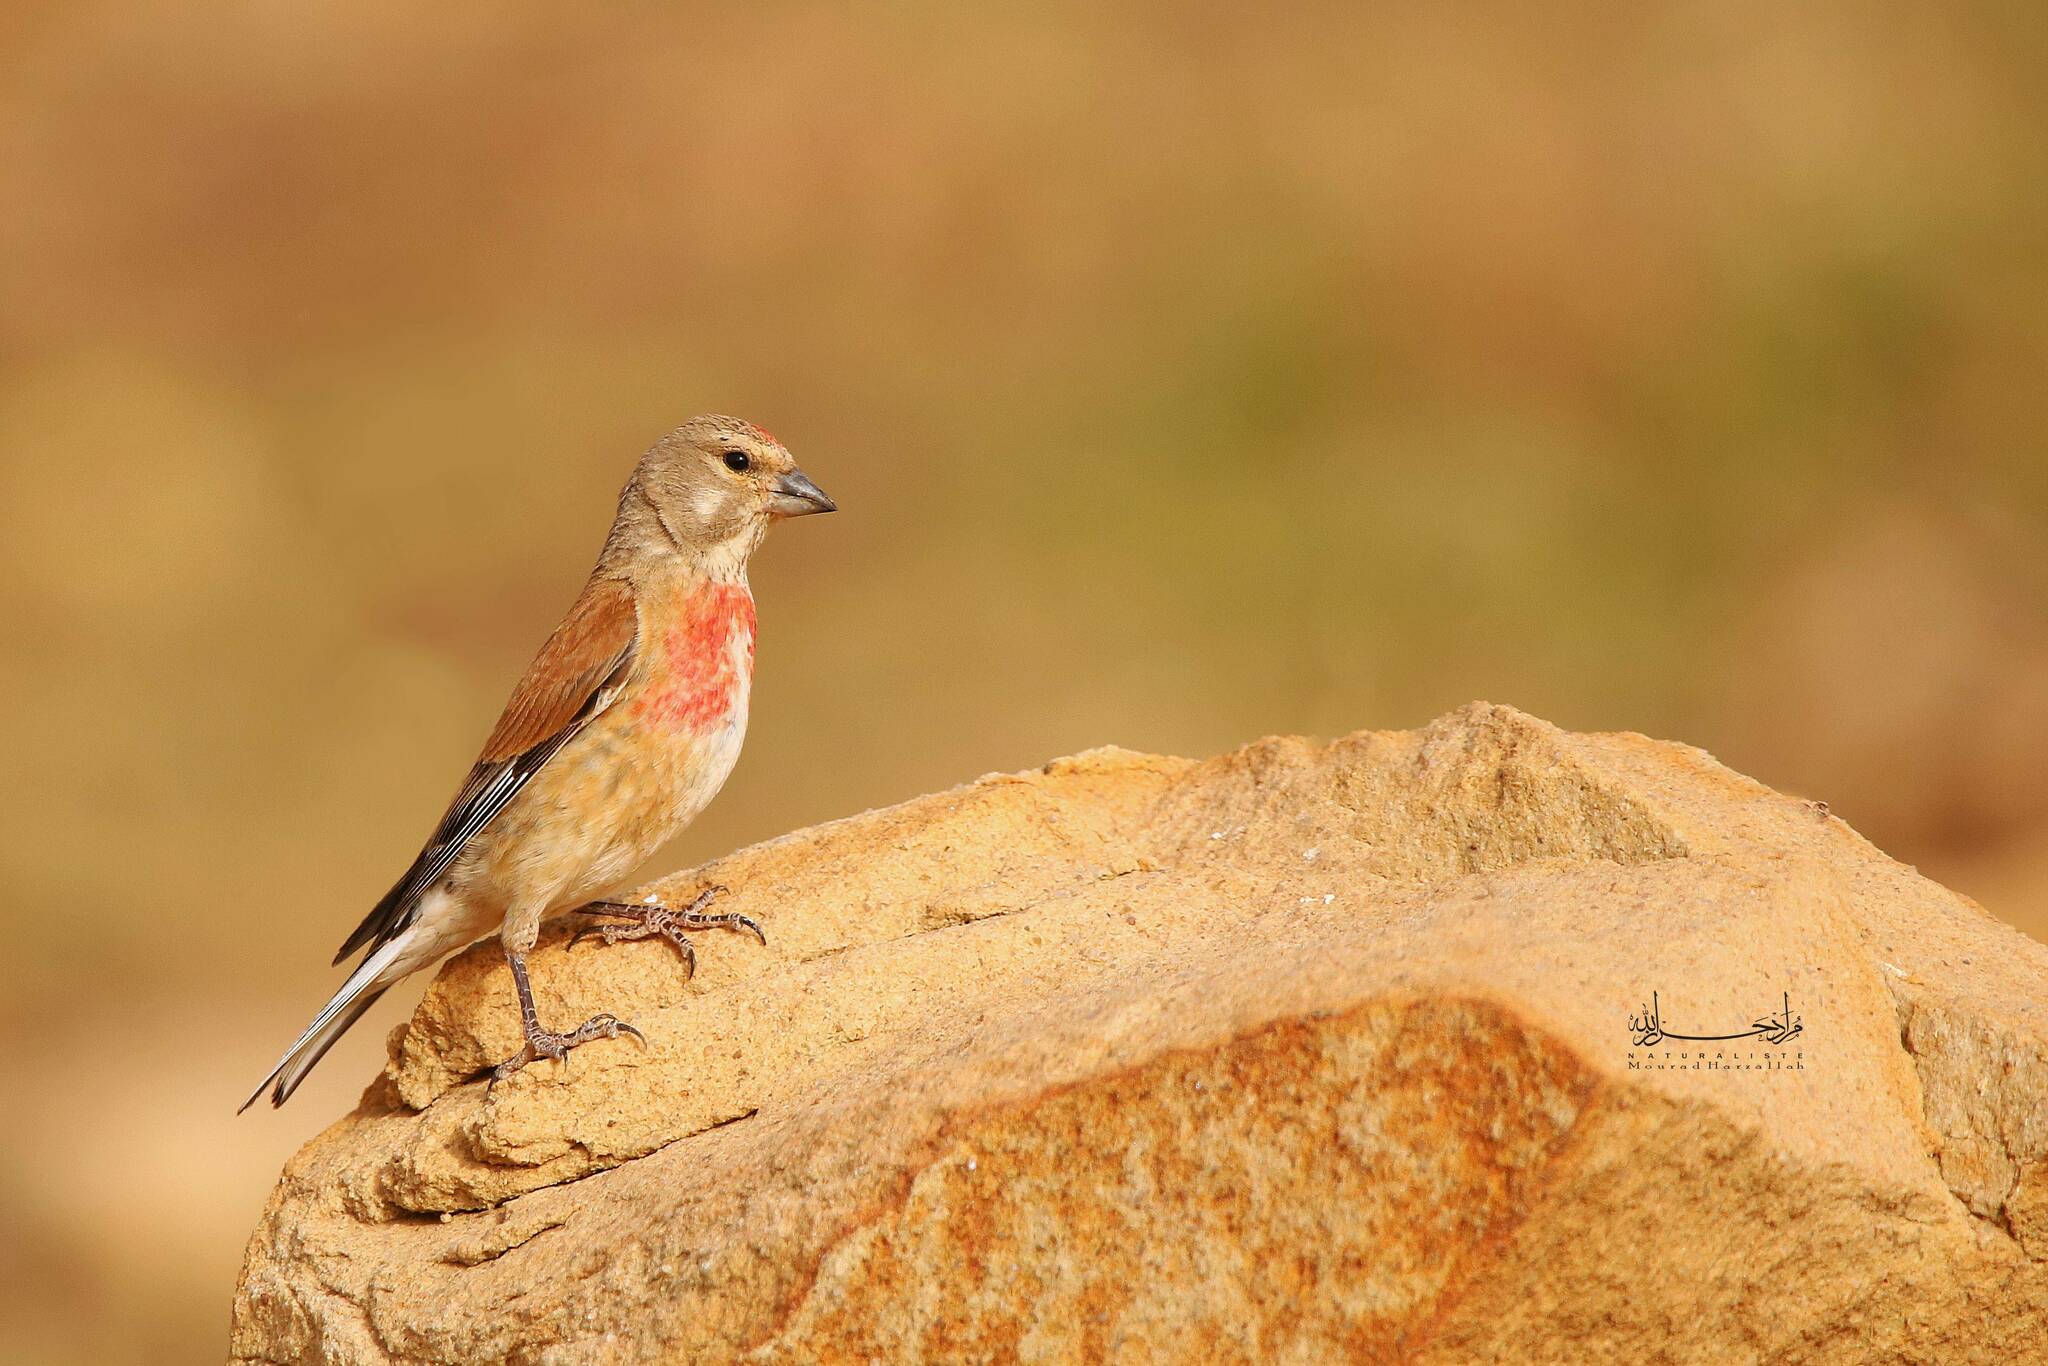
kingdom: Animalia
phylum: Chordata
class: Aves
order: Passeriformes
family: Fringillidae
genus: Linaria
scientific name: Linaria cannabina
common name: Common linnet
